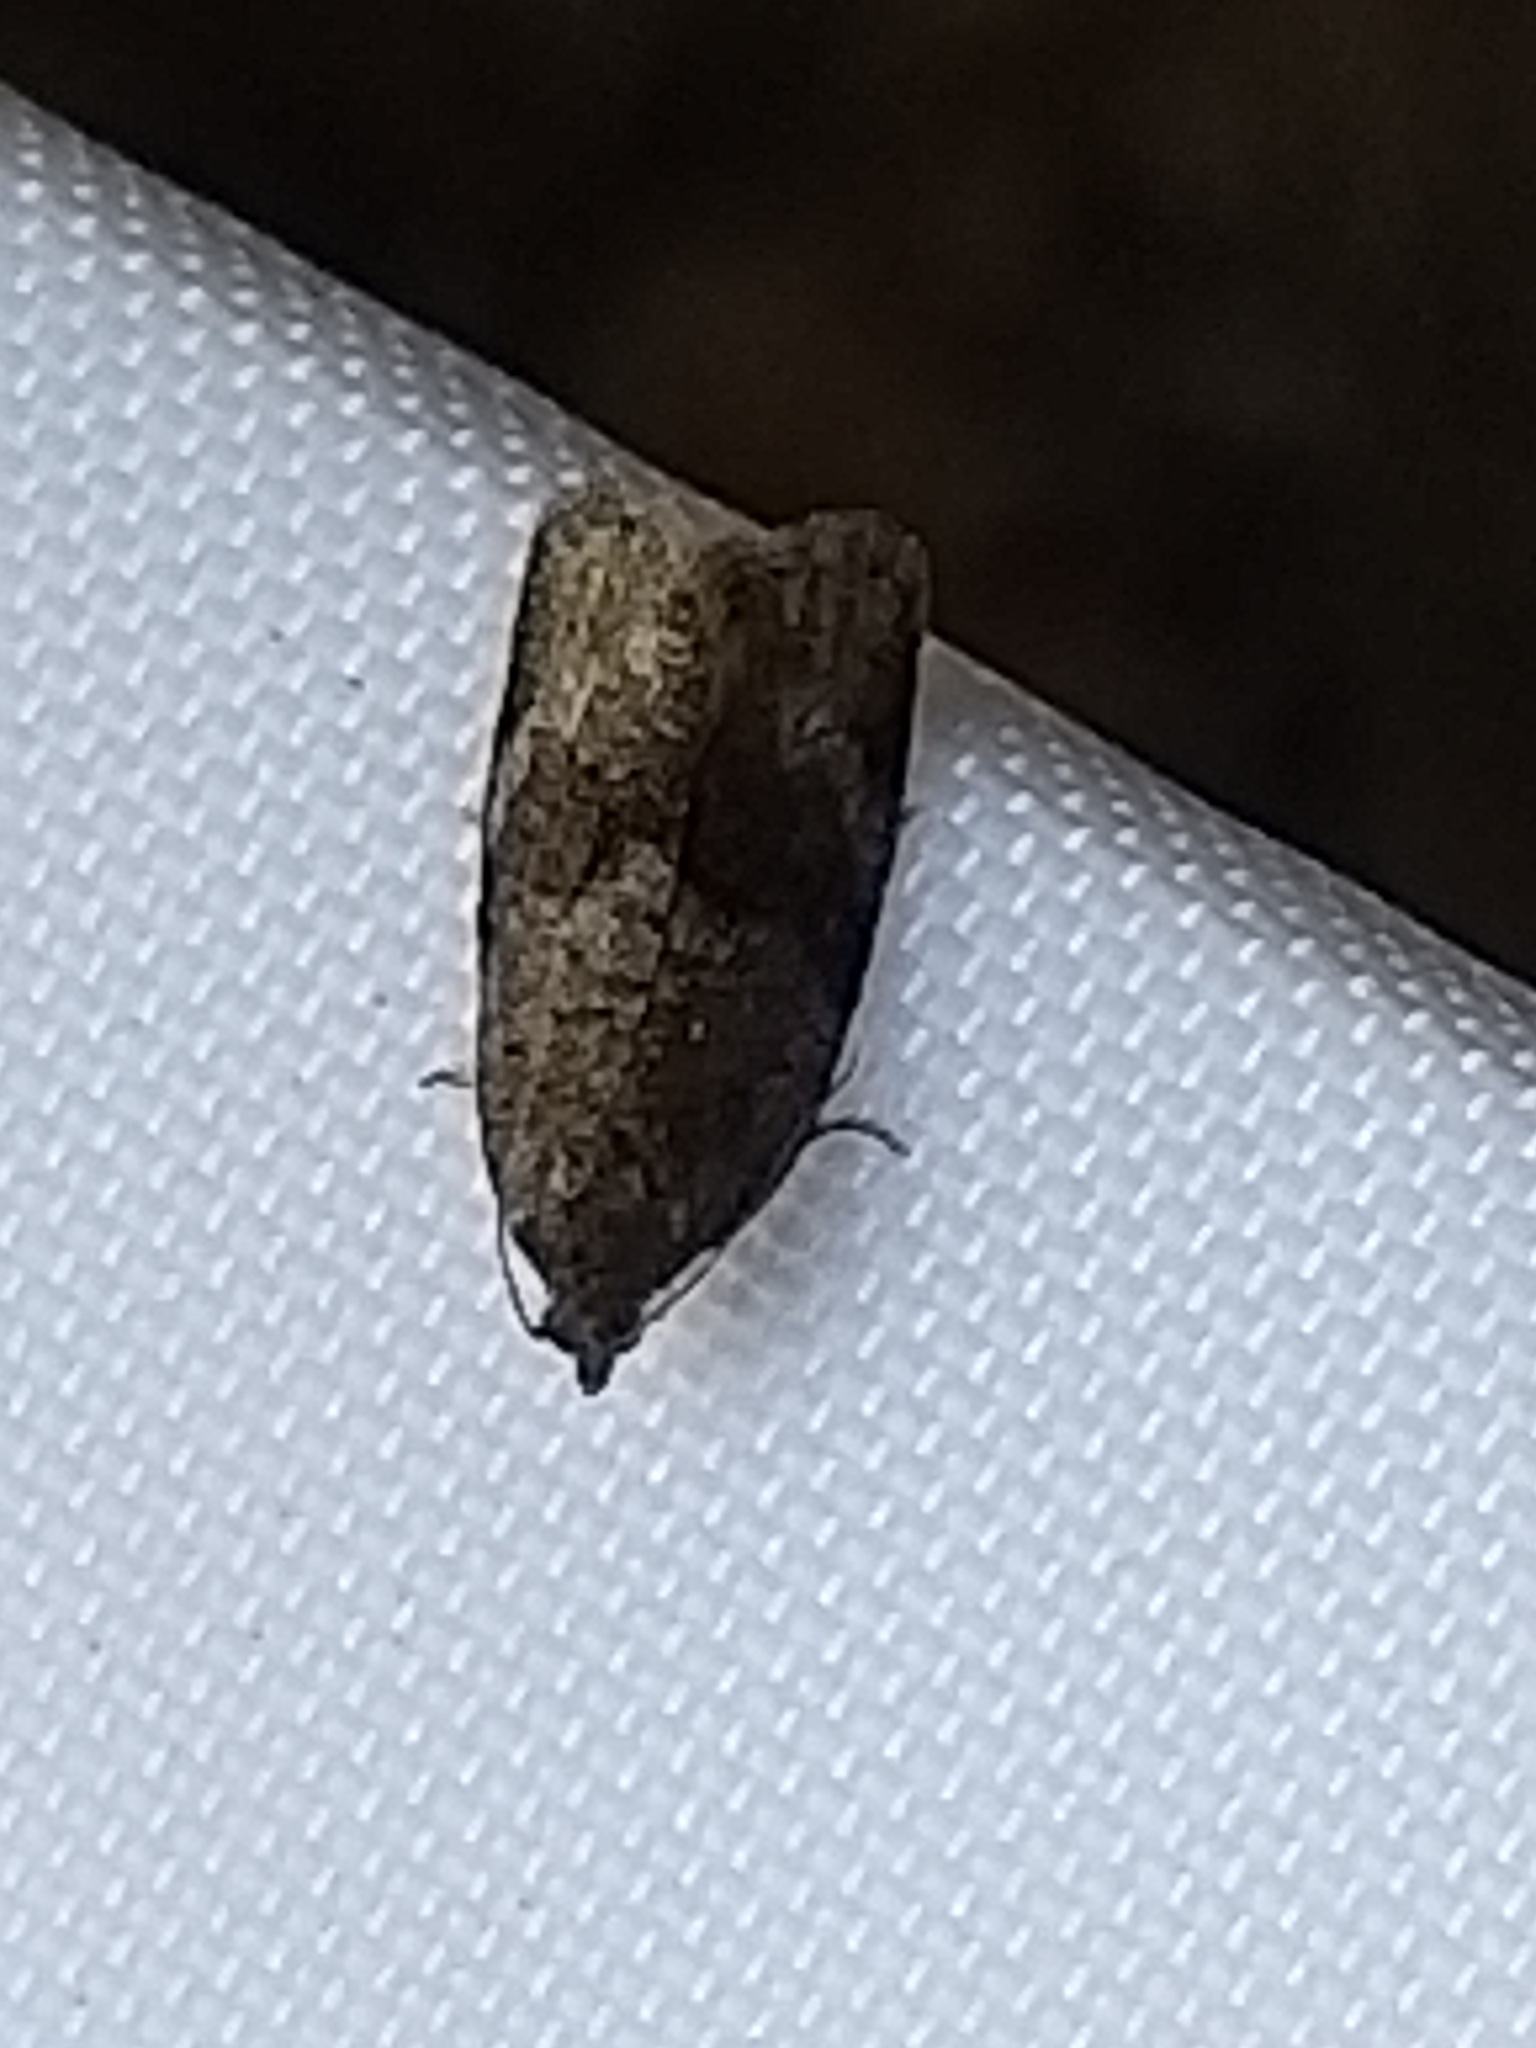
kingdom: Animalia
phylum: Arthropoda
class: Insecta
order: Lepidoptera
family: Tortricidae
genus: Syndemis
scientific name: Syndemis musculana
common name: Dark-barred twist
